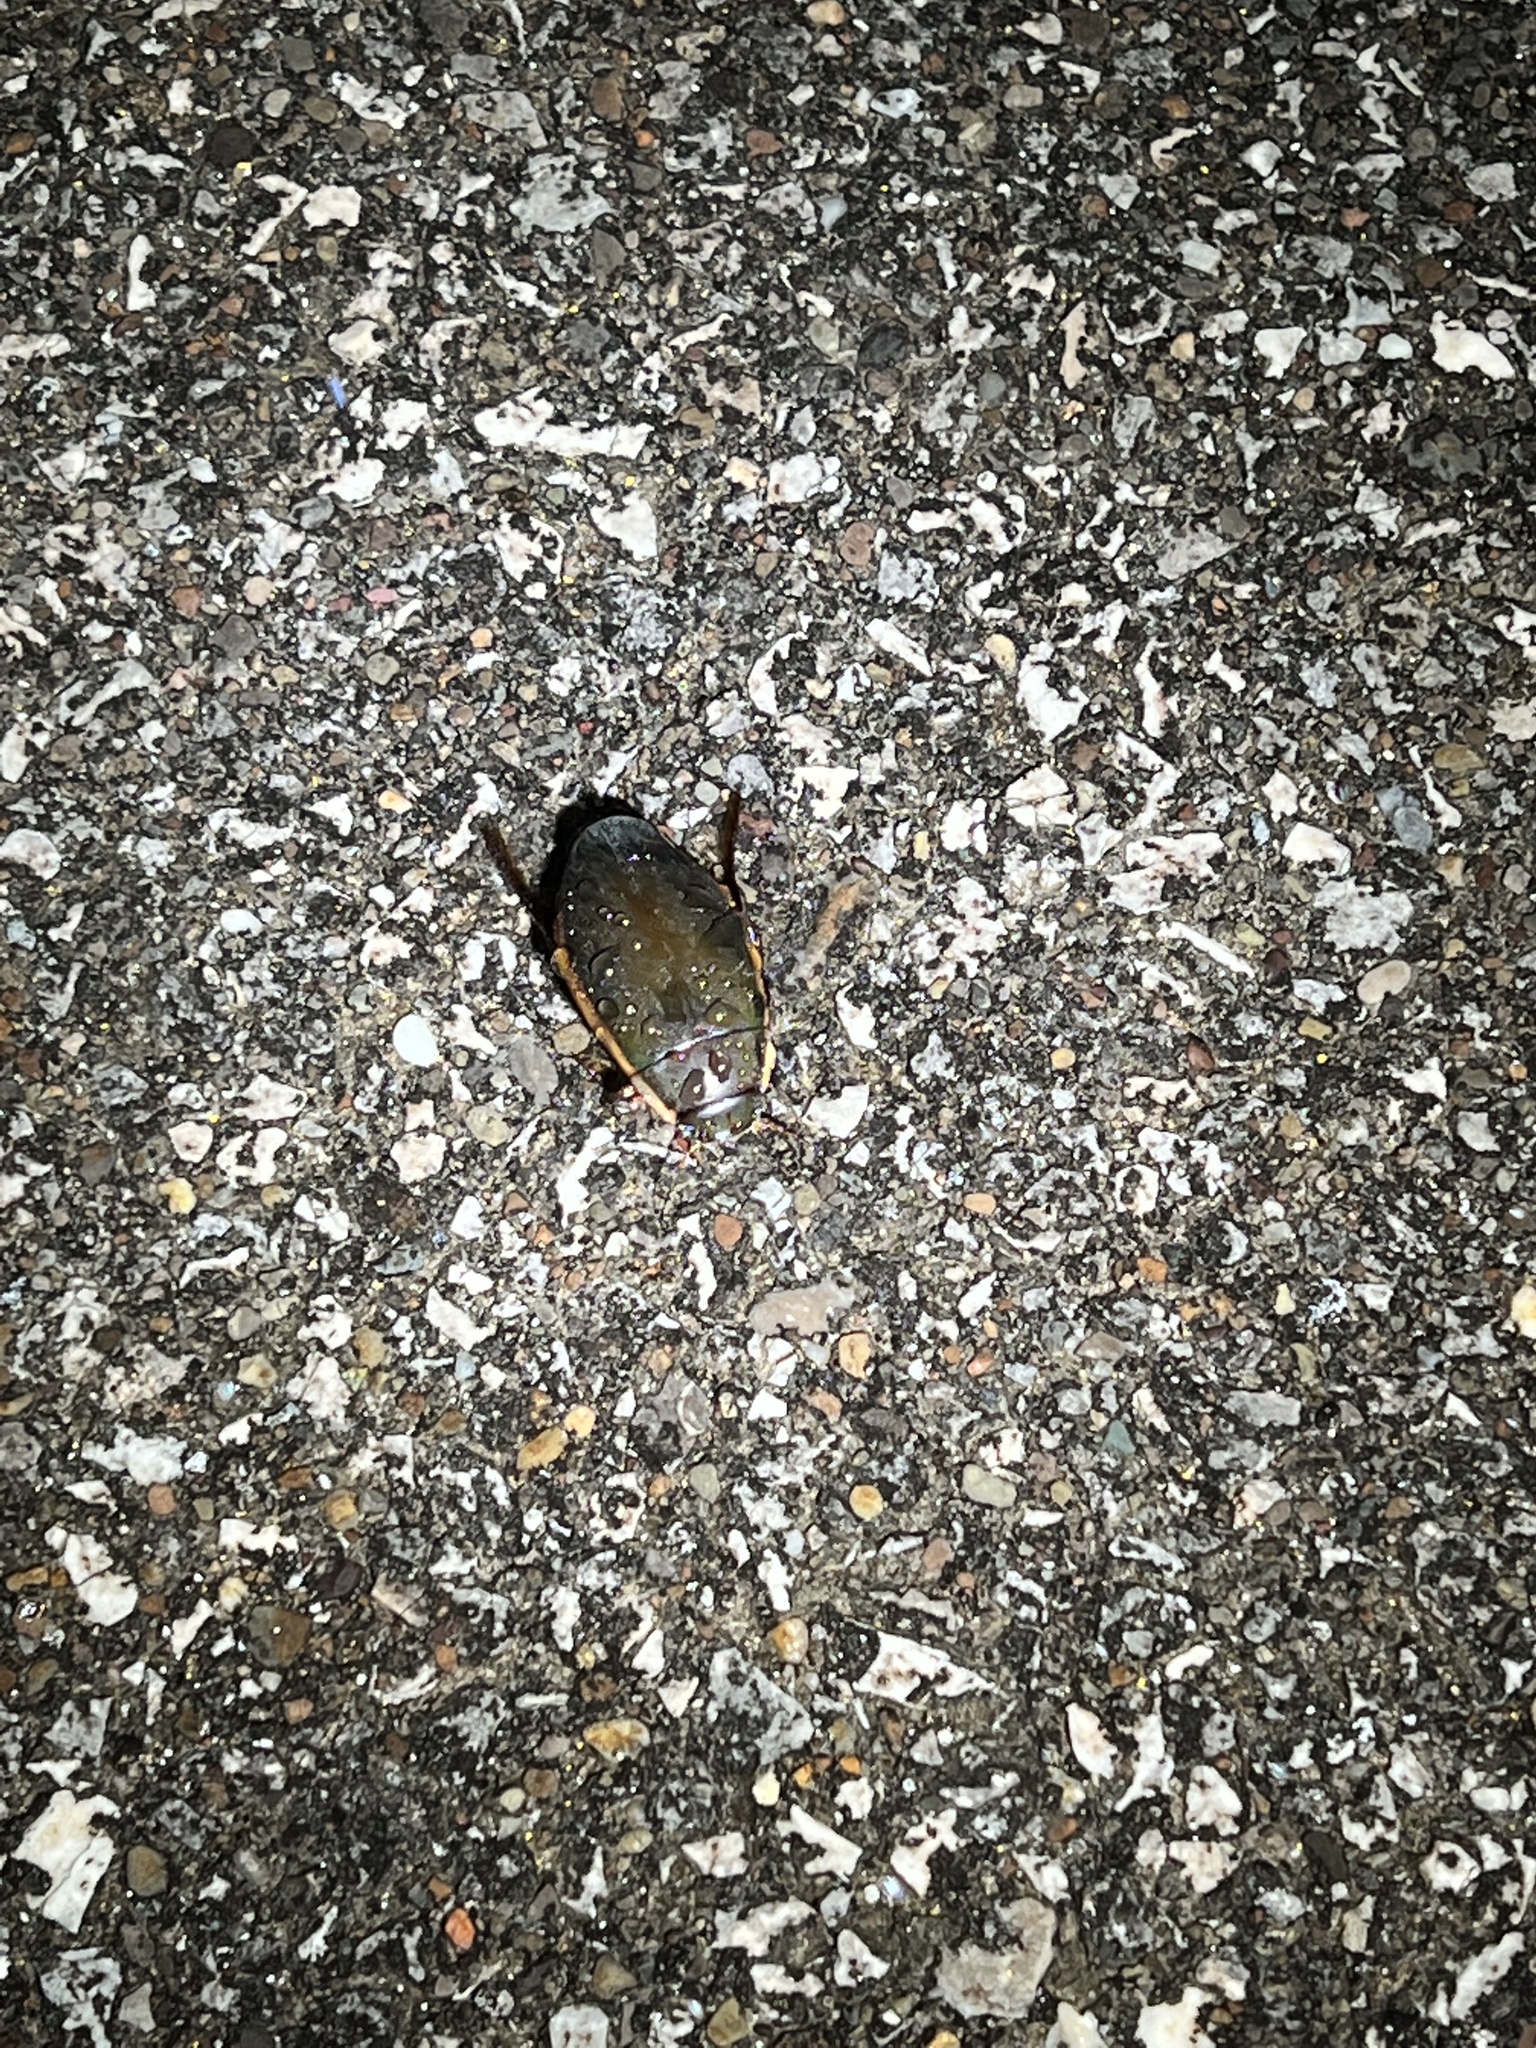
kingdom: Animalia
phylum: Arthropoda
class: Insecta
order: Coleoptera
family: Dytiscidae
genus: Dytiscus
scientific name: Dytiscus
